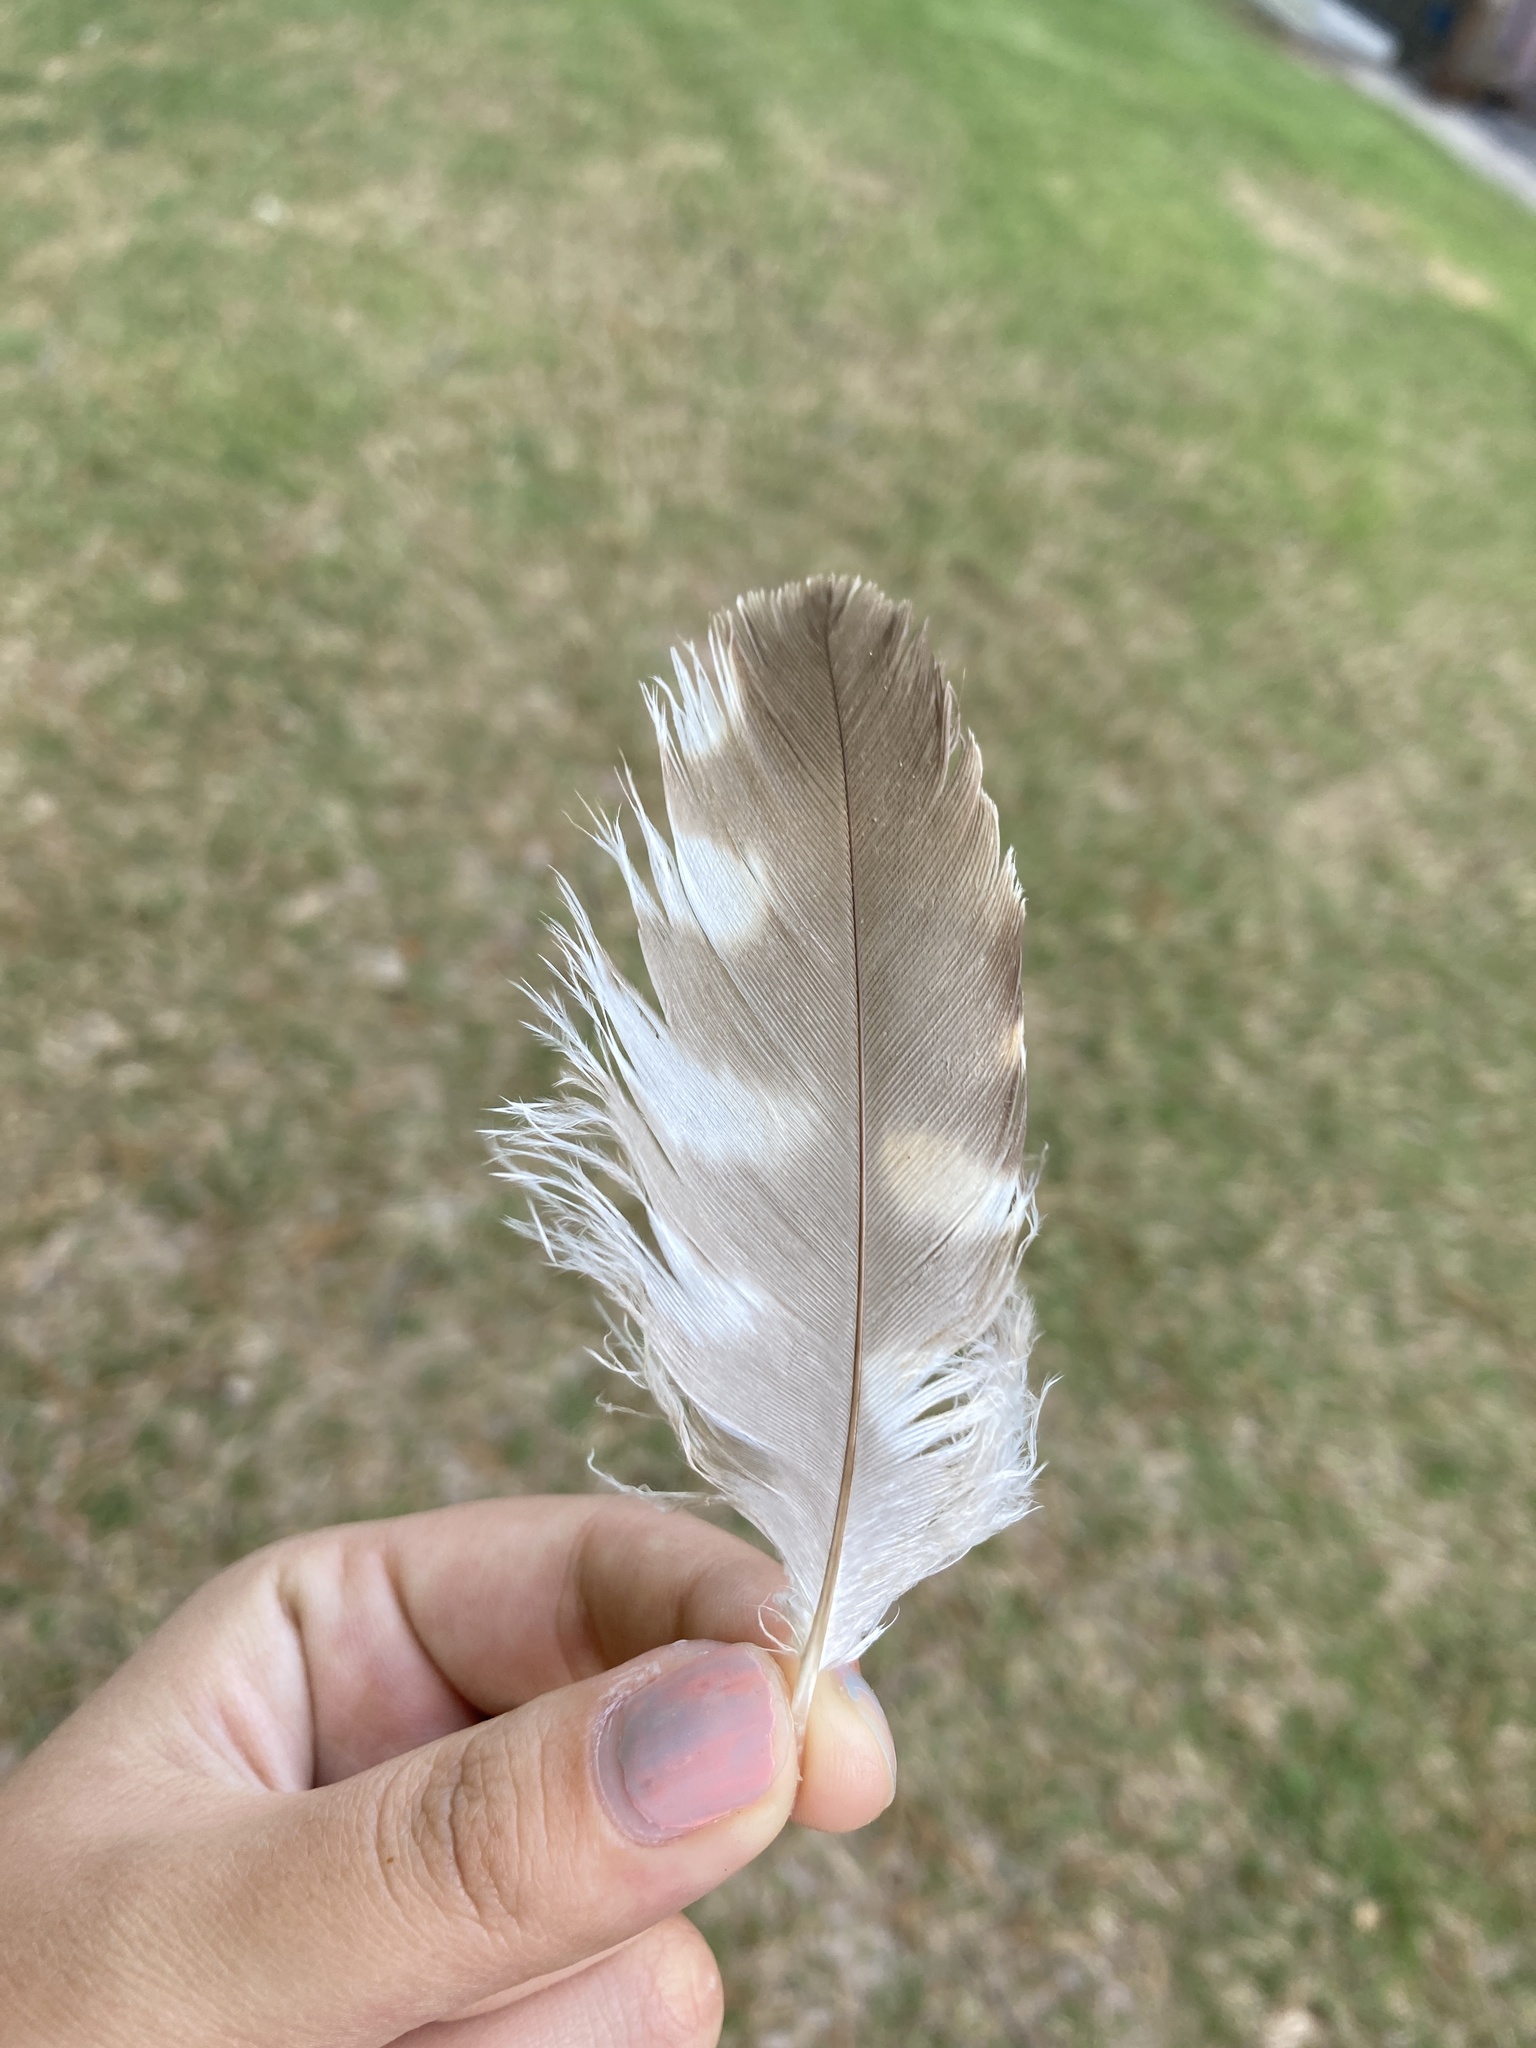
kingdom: Animalia
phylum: Chordata
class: Aves
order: Accipitriformes
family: Accipitridae
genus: Buteo
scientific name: Buteo lineatus
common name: Red-shouldered hawk
